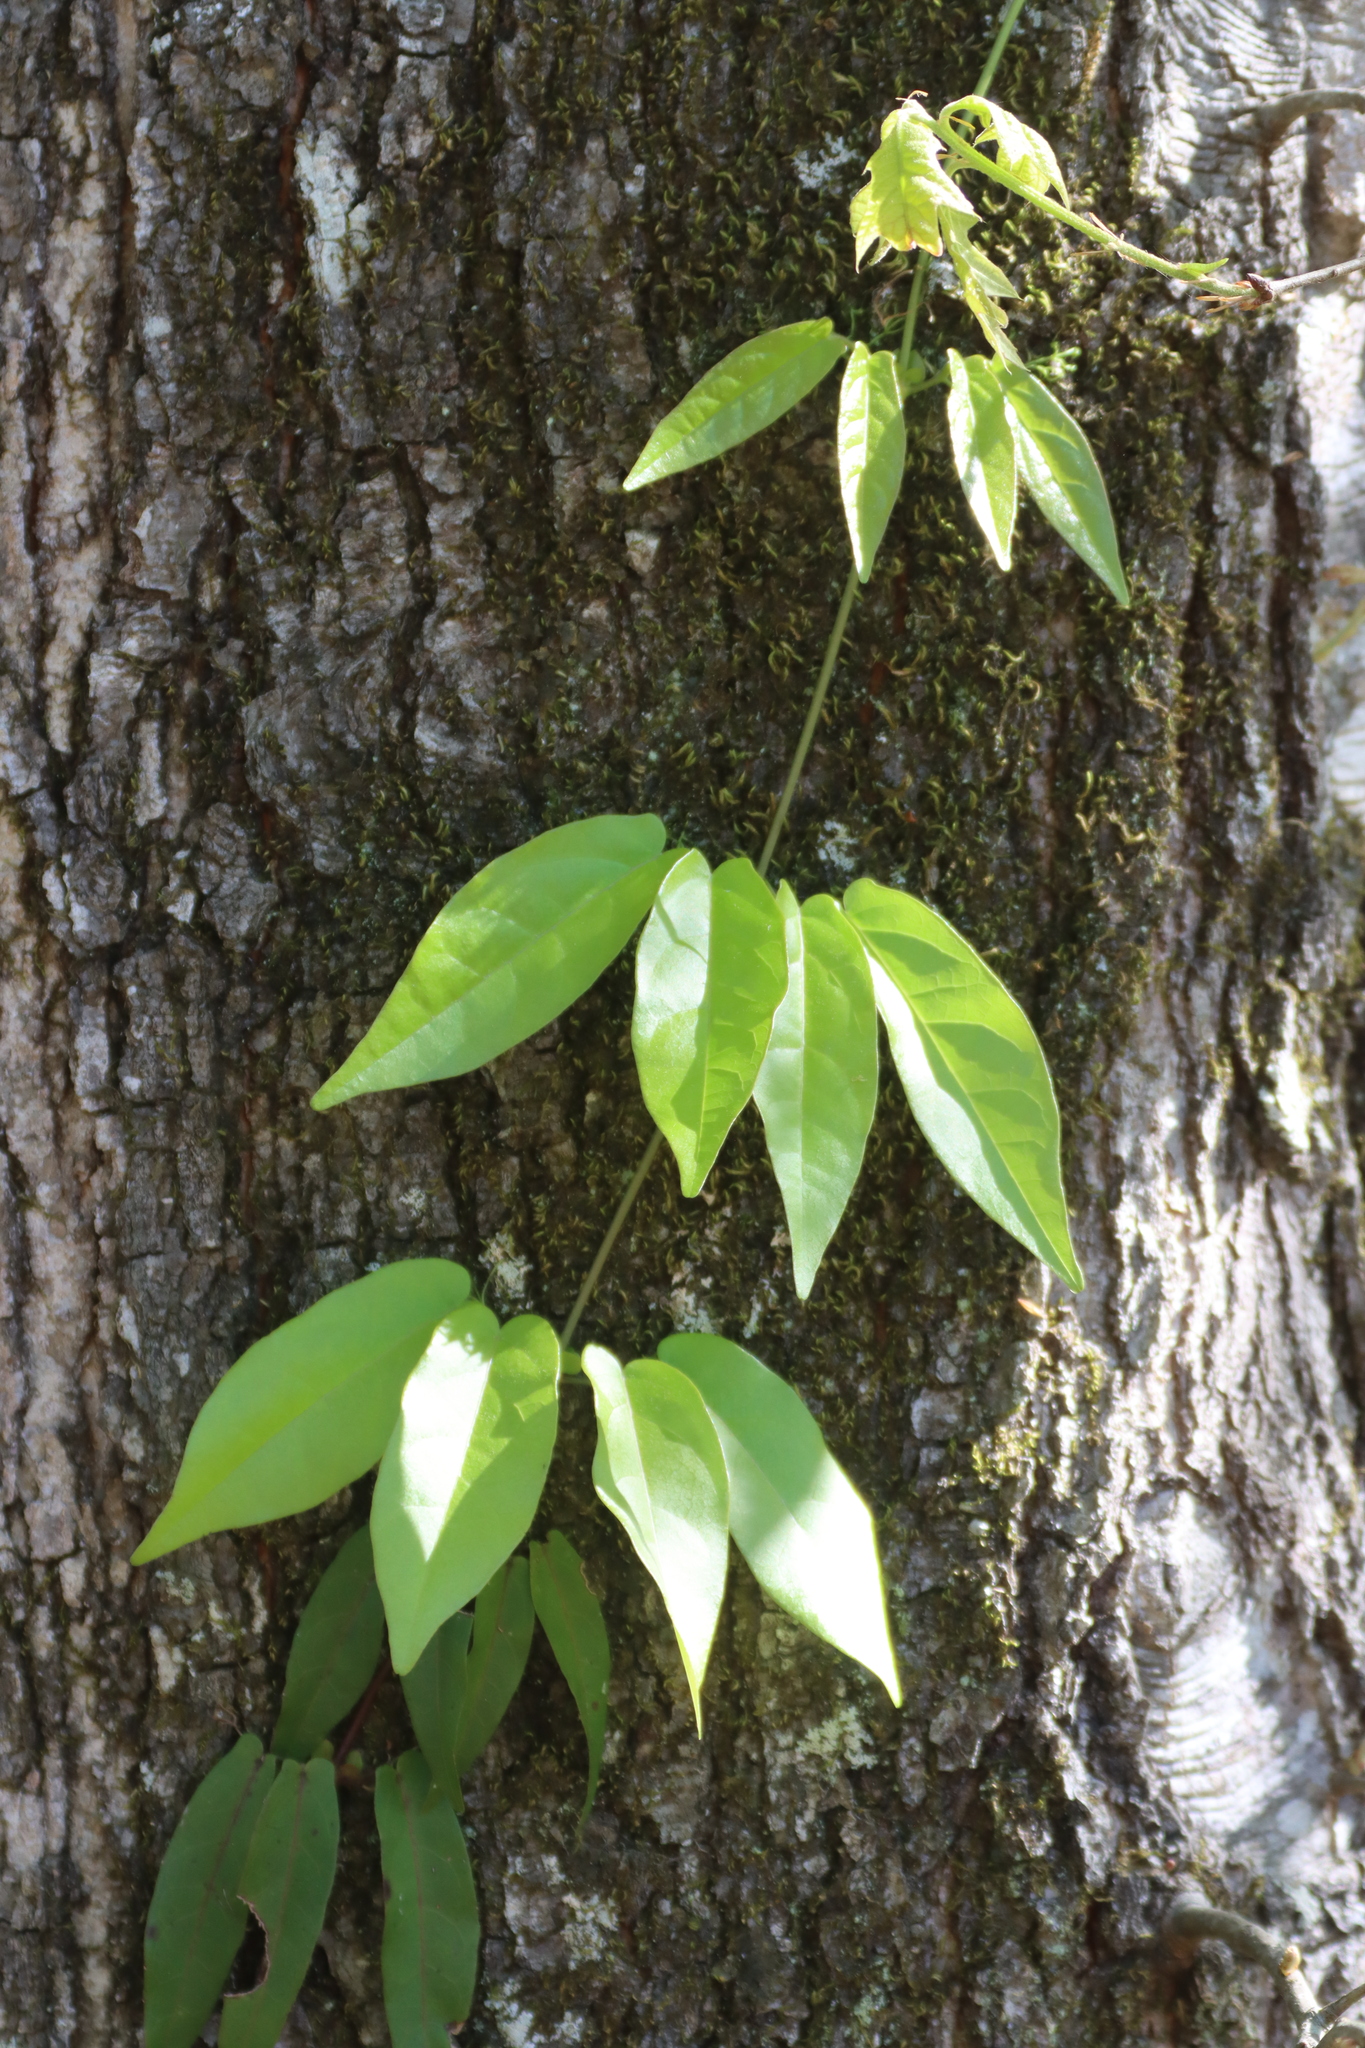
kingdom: Plantae
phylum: Tracheophyta
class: Magnoliopsida
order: Lamiales
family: Bignoniaceae
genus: Bignonia
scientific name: Bignonia capreolata
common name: Crossvine
